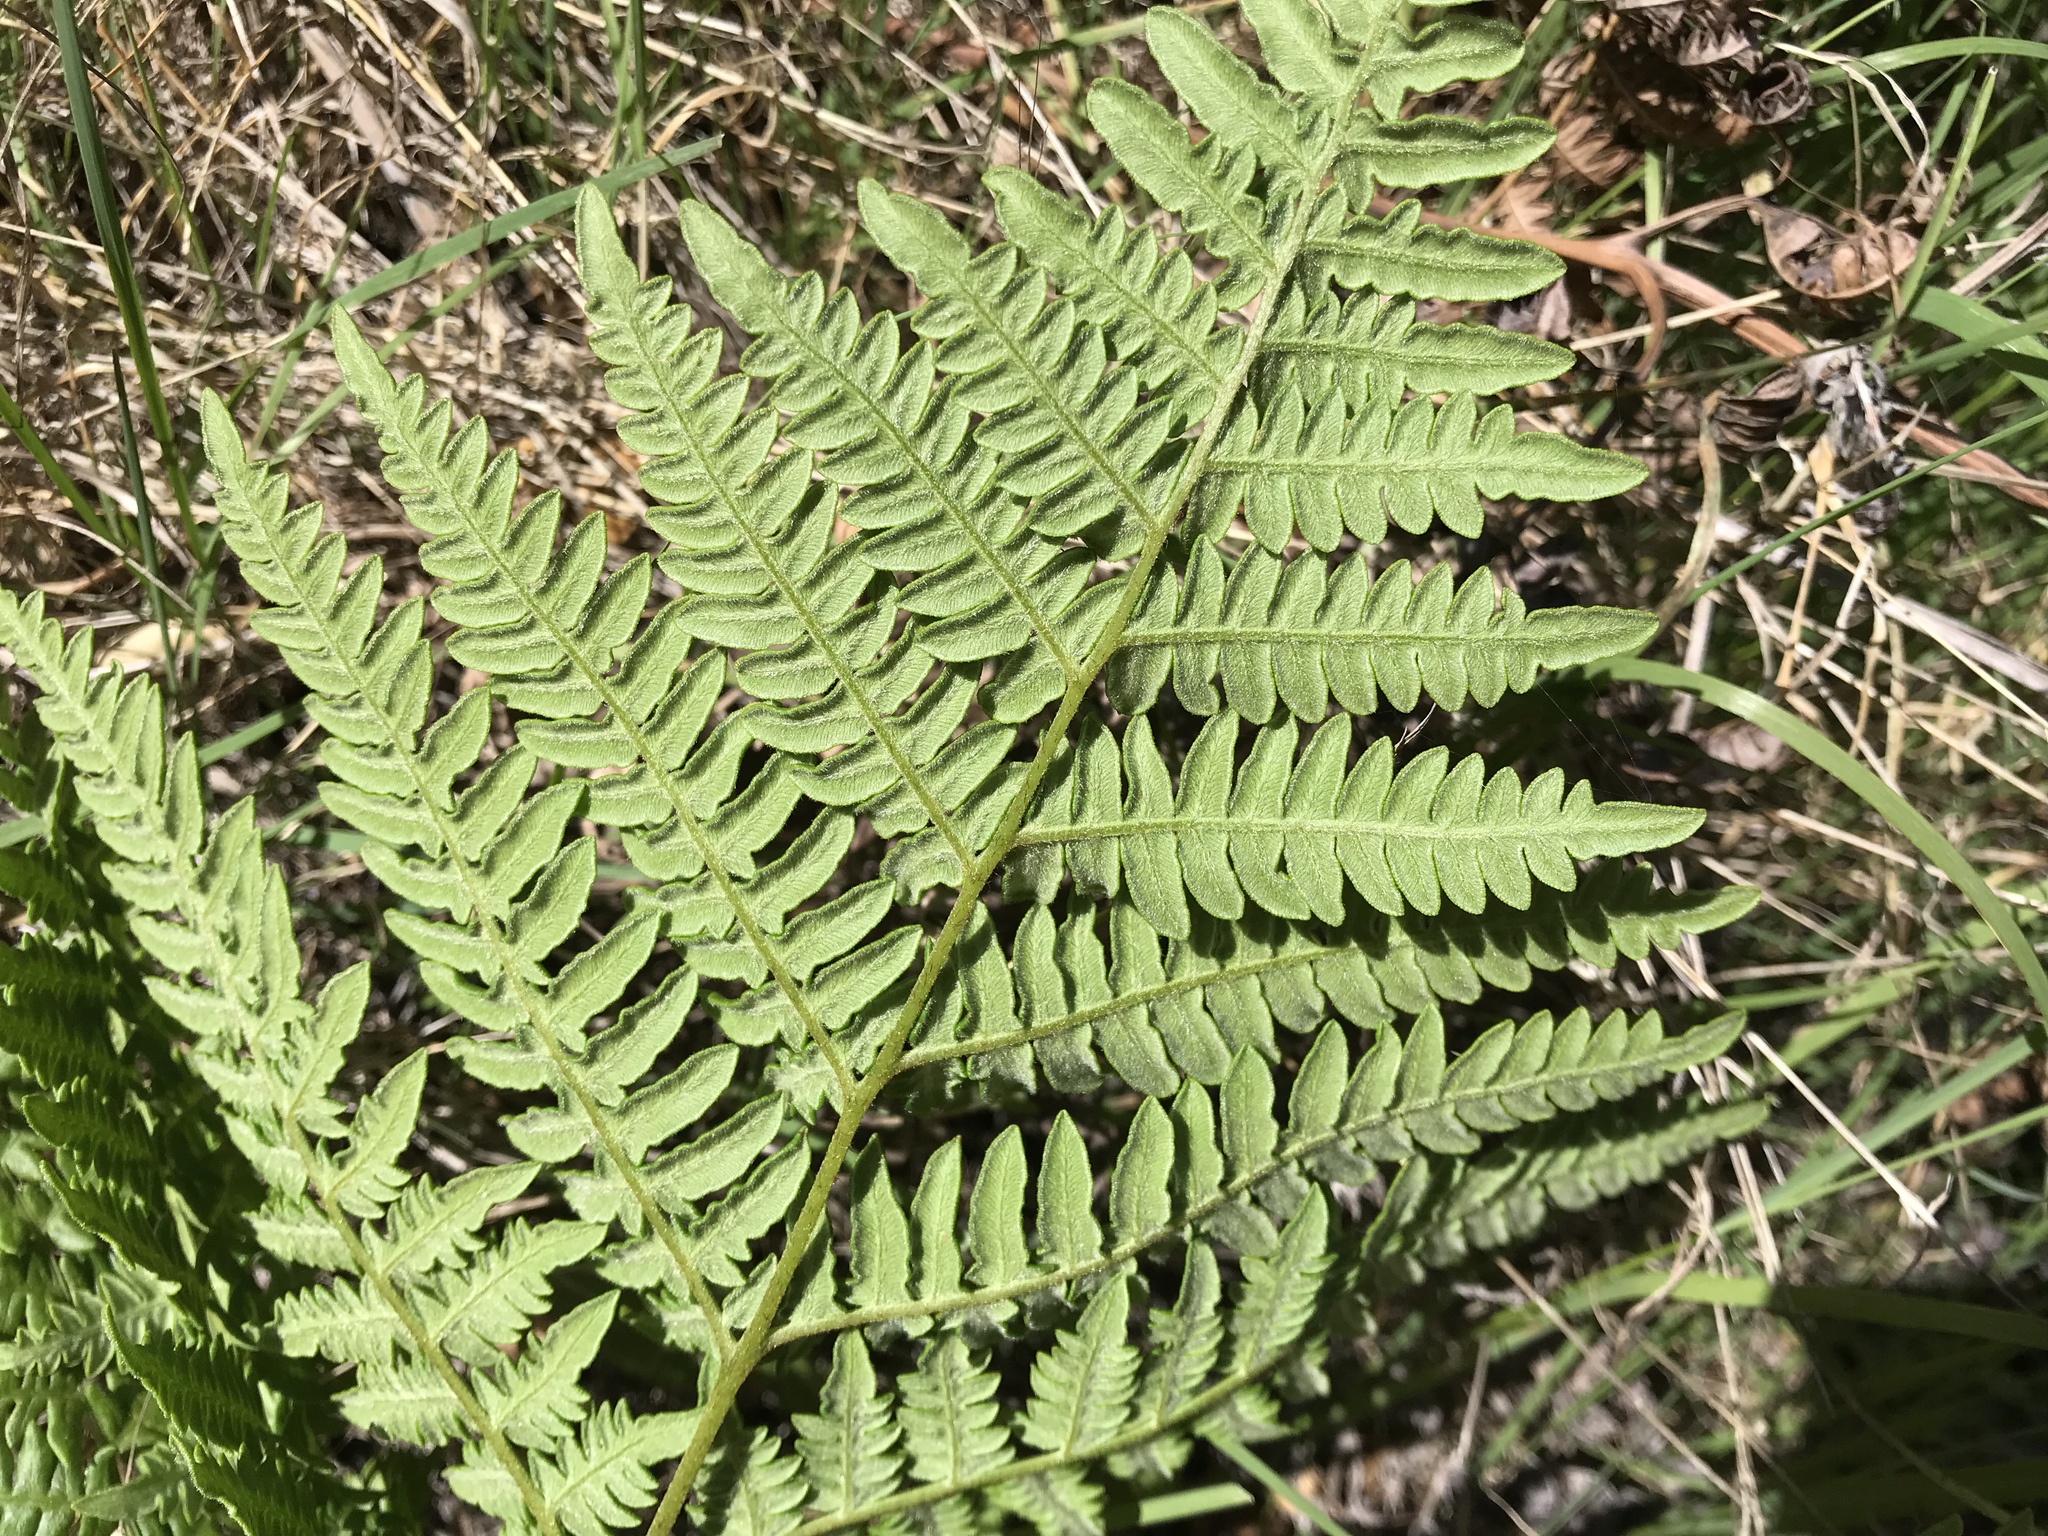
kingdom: Plantae
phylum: Tracheophyta
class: Polypodiopsida
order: Polypodiales
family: Dennstaedtiaceae
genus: Pteridium
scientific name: Pteridium aquilinum
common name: Bracken
